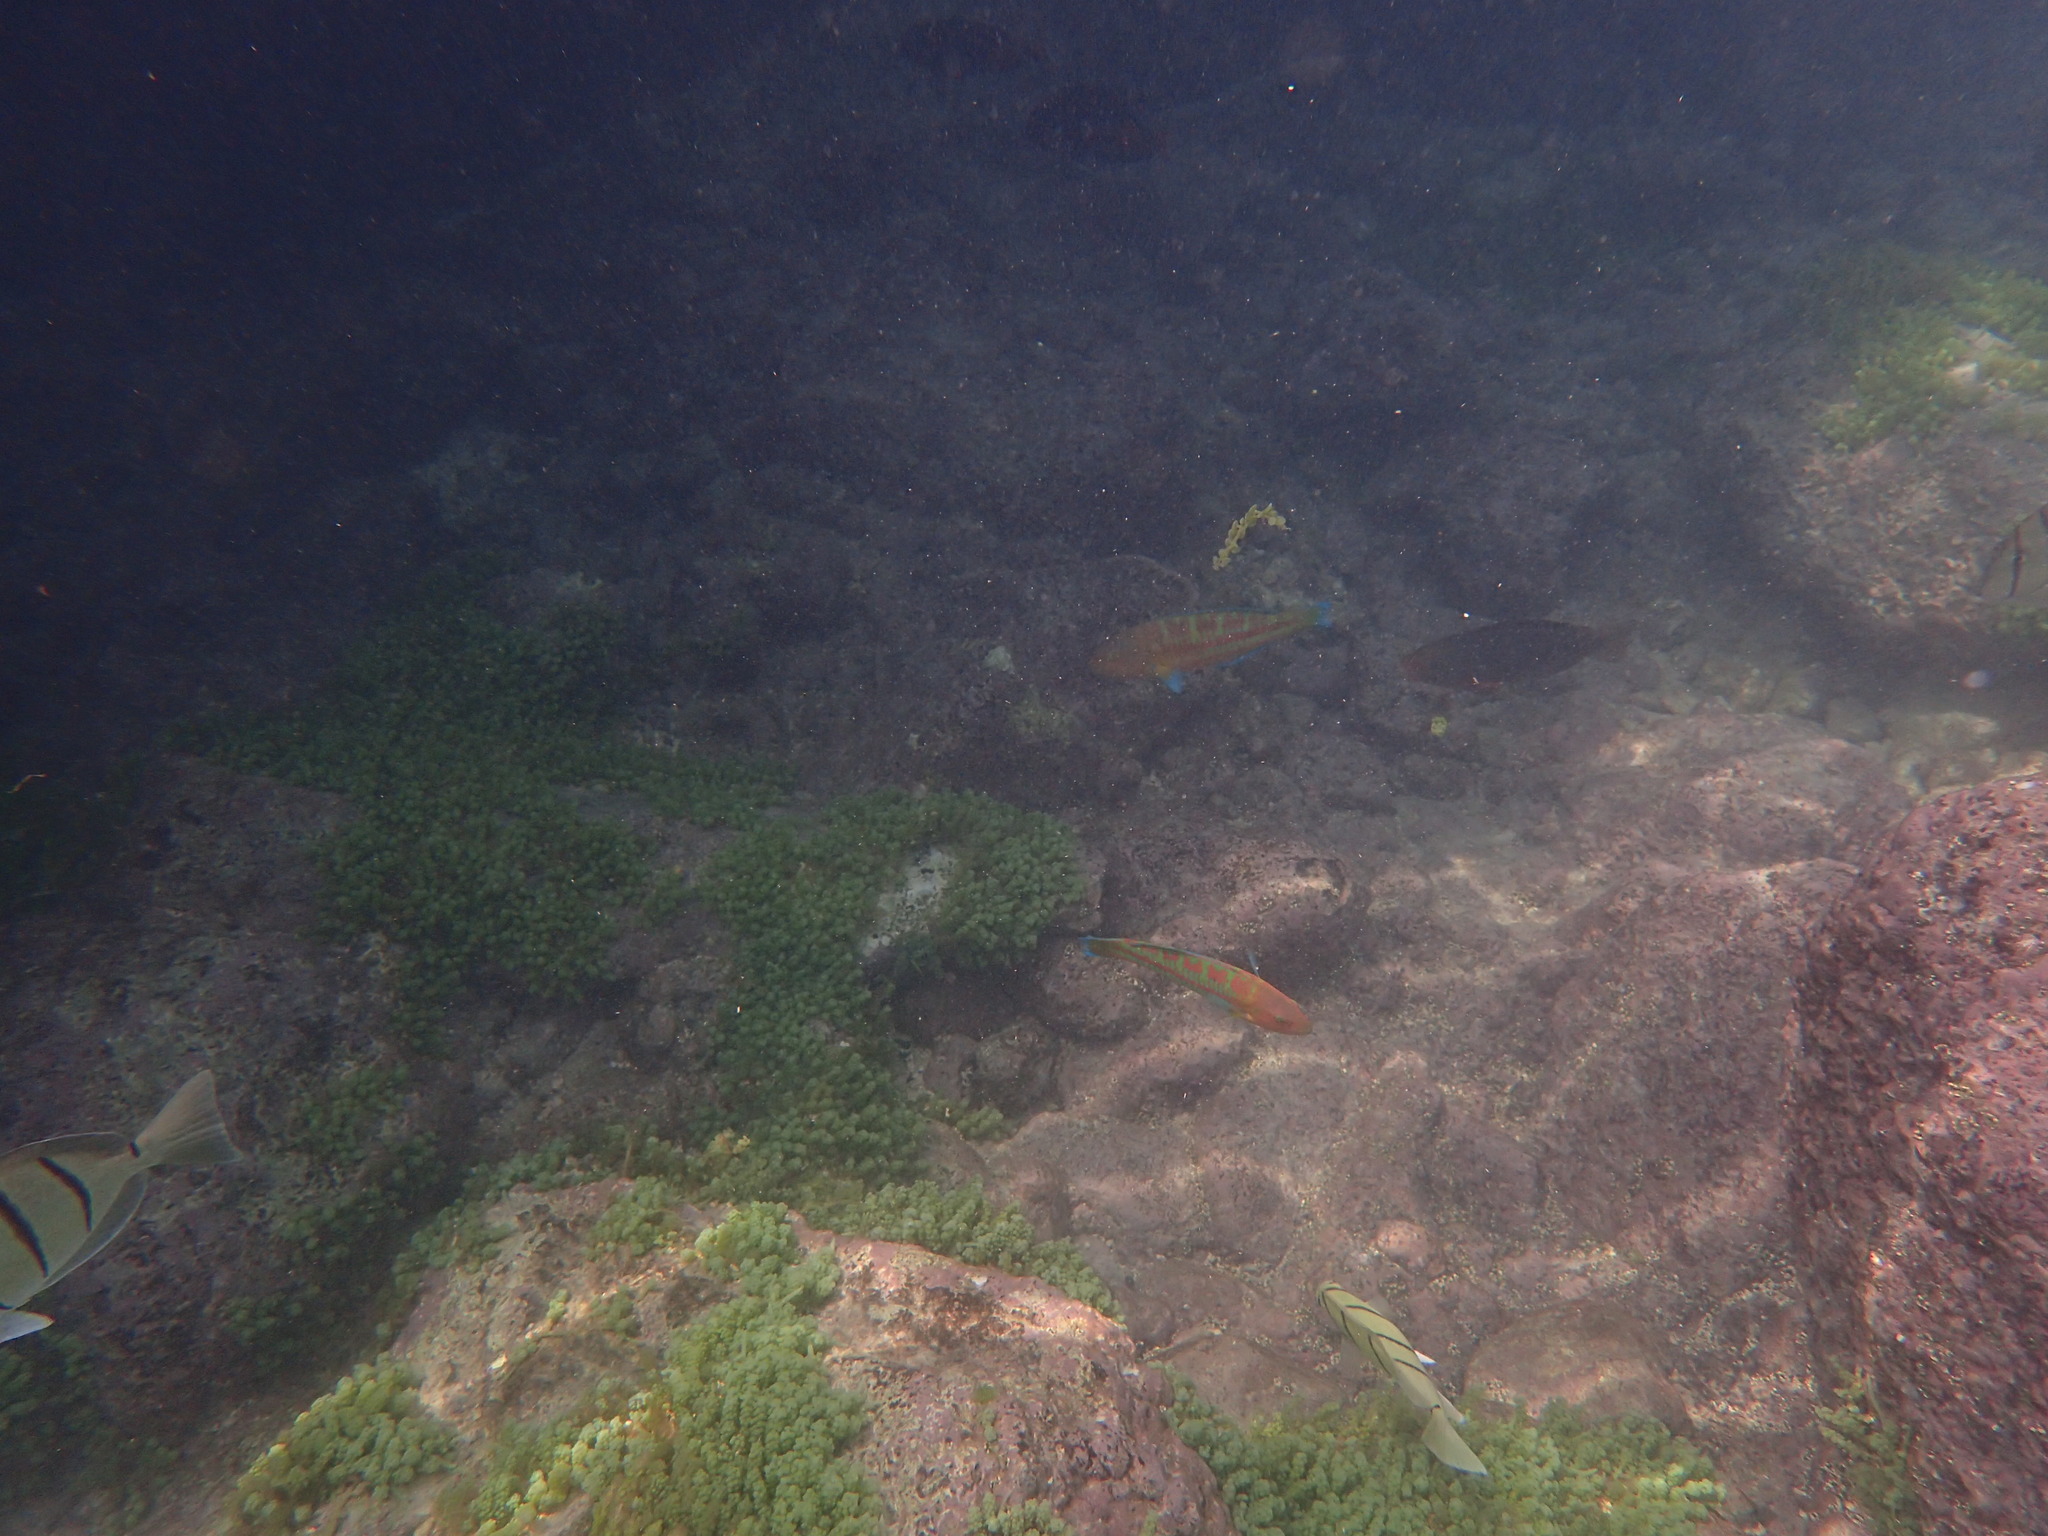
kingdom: Animalia
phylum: Chordata
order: Perciformes
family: Labridae
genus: Thalassoma
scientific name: Thalassoma trilobatum
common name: Christmas wrasse
